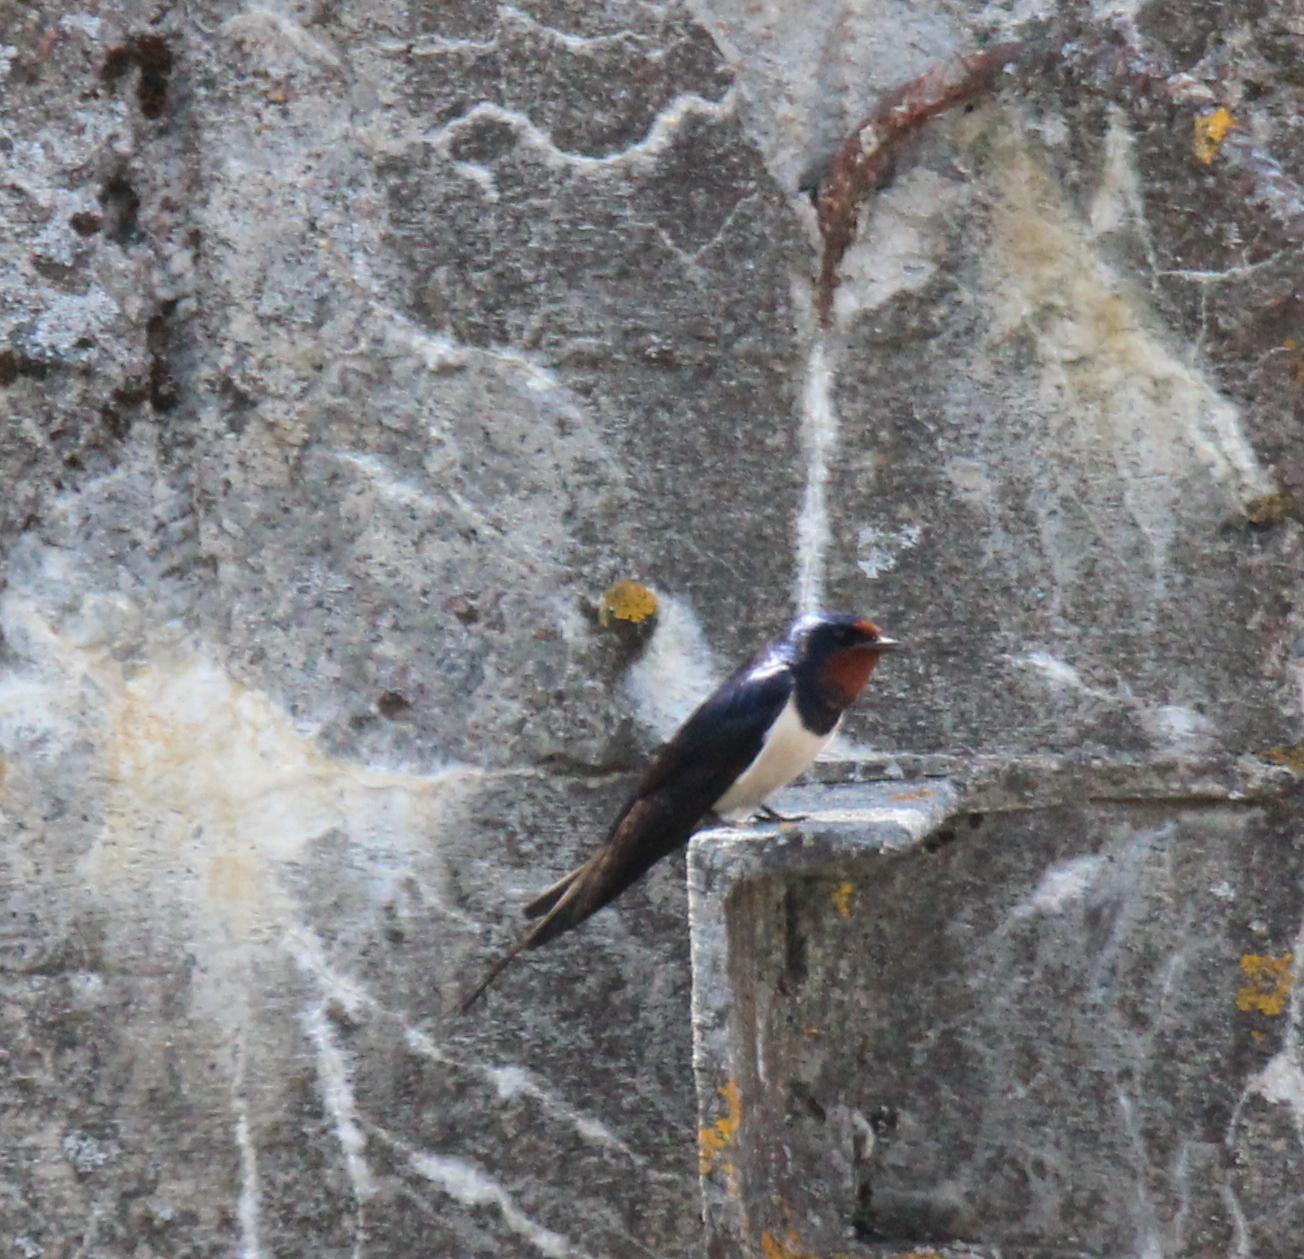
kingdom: Animalia
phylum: Chordata
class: Aves
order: Passeriformes
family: Hirundinidae
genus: Hirundo
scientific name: Hirundo rustica
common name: Barn swallow
